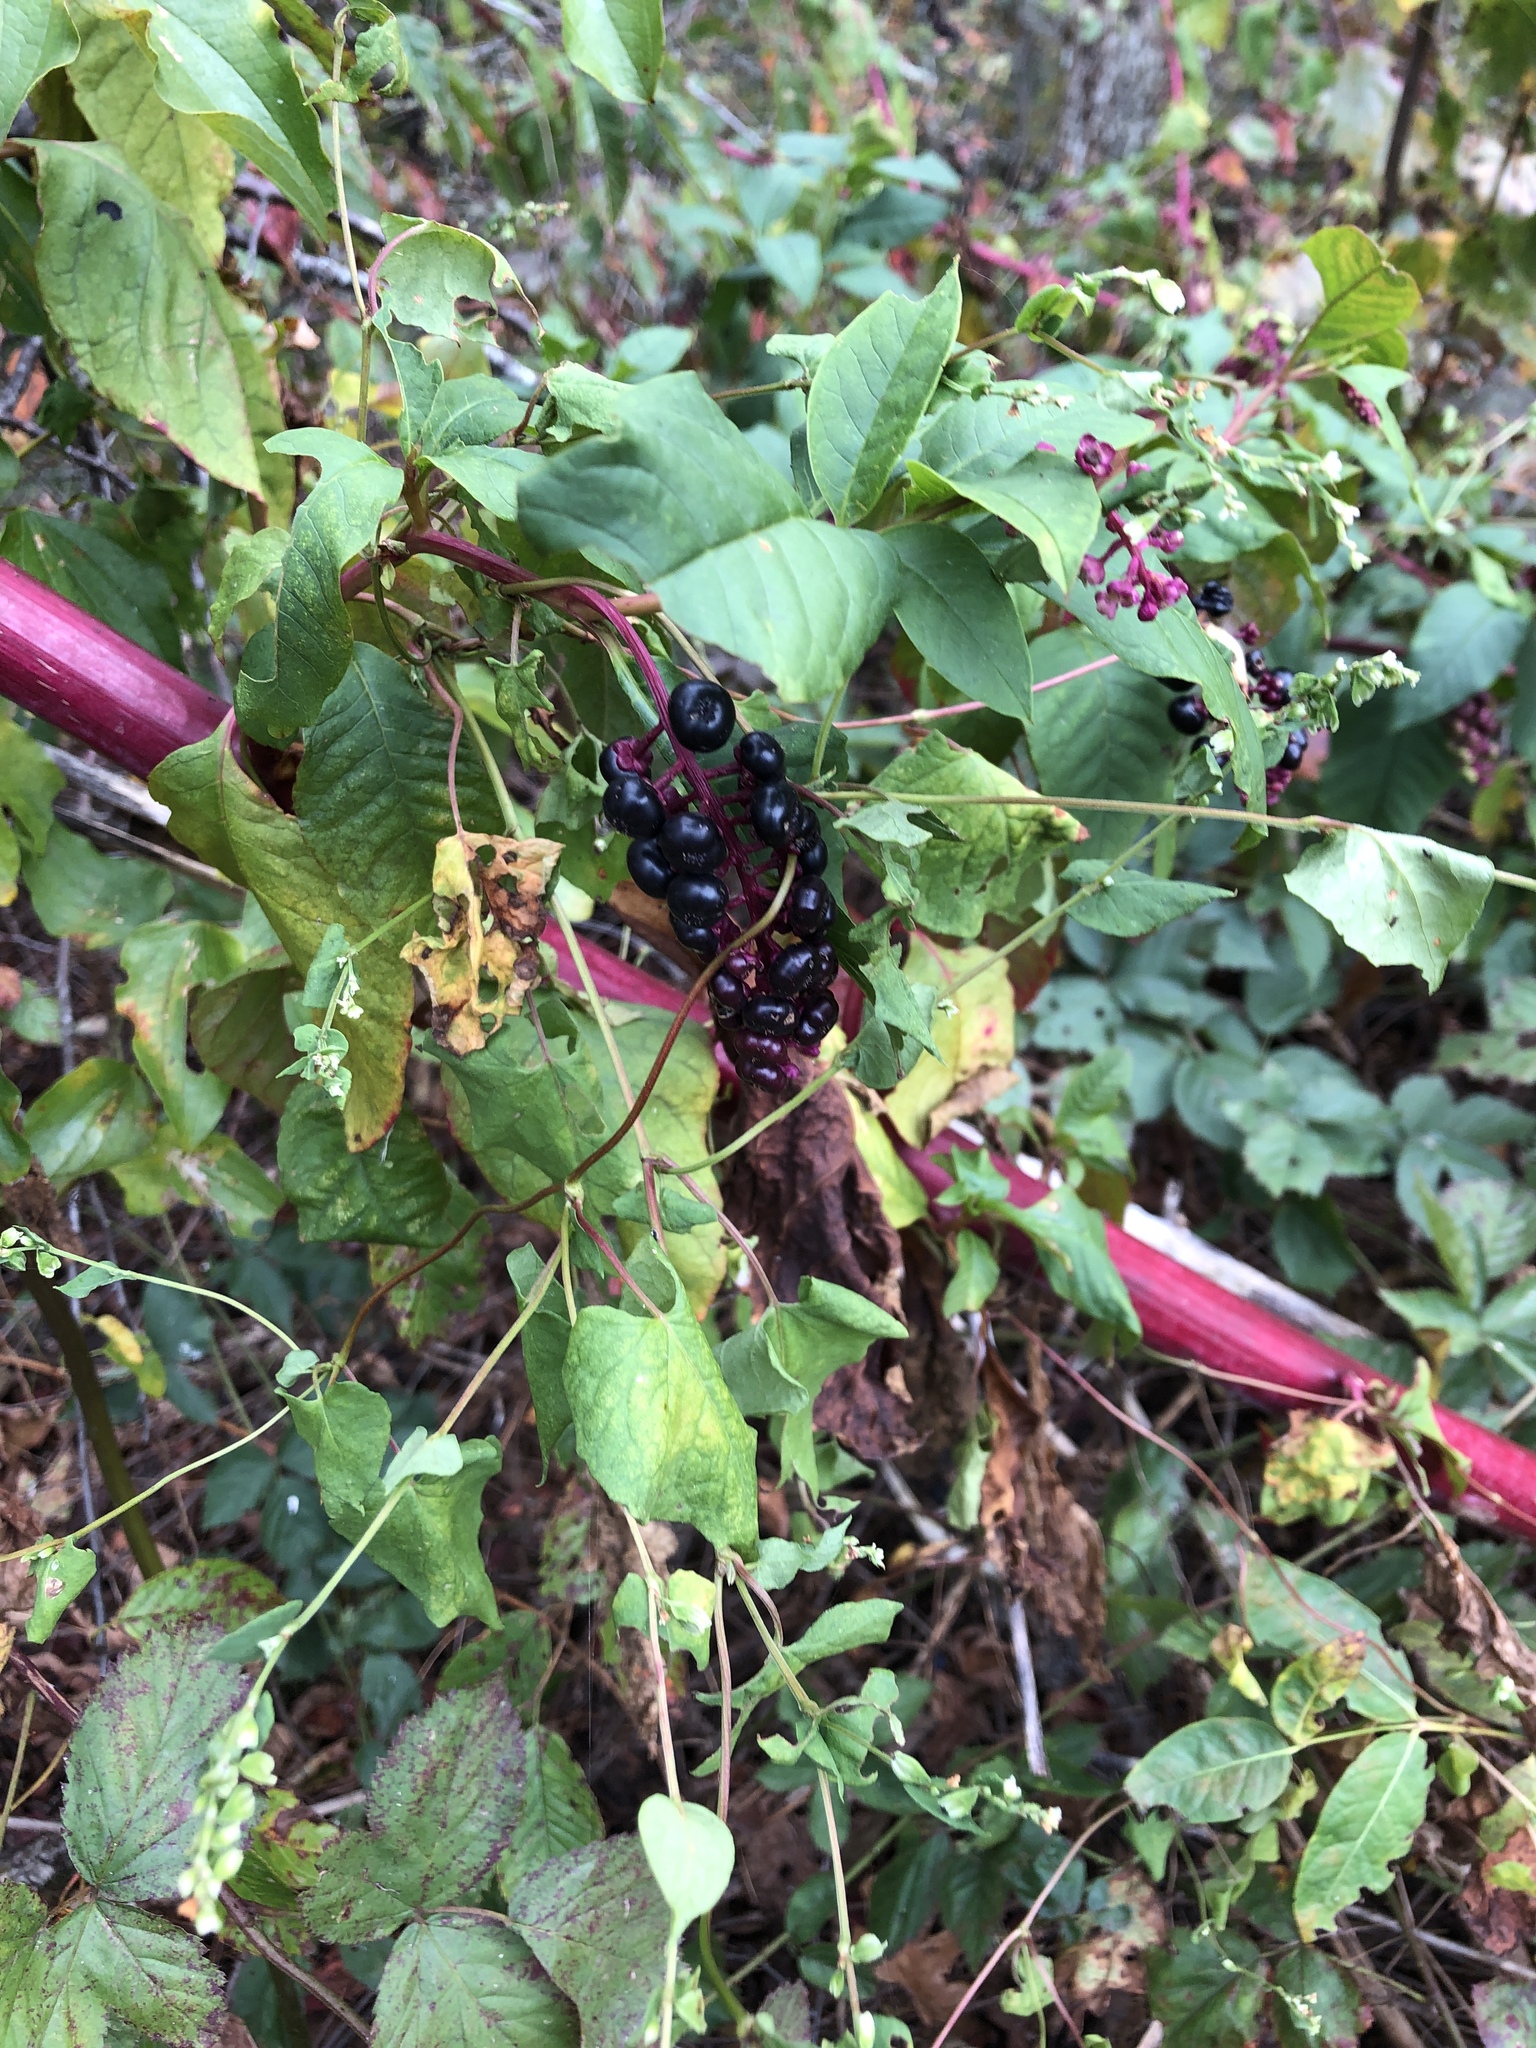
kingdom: Plantae
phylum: Tracheophyta
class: Magnoliopsida
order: Caryophyllales
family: Phytolaccaceae
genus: Phytolacca
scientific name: Phytolacca americana
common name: American pokeweed
